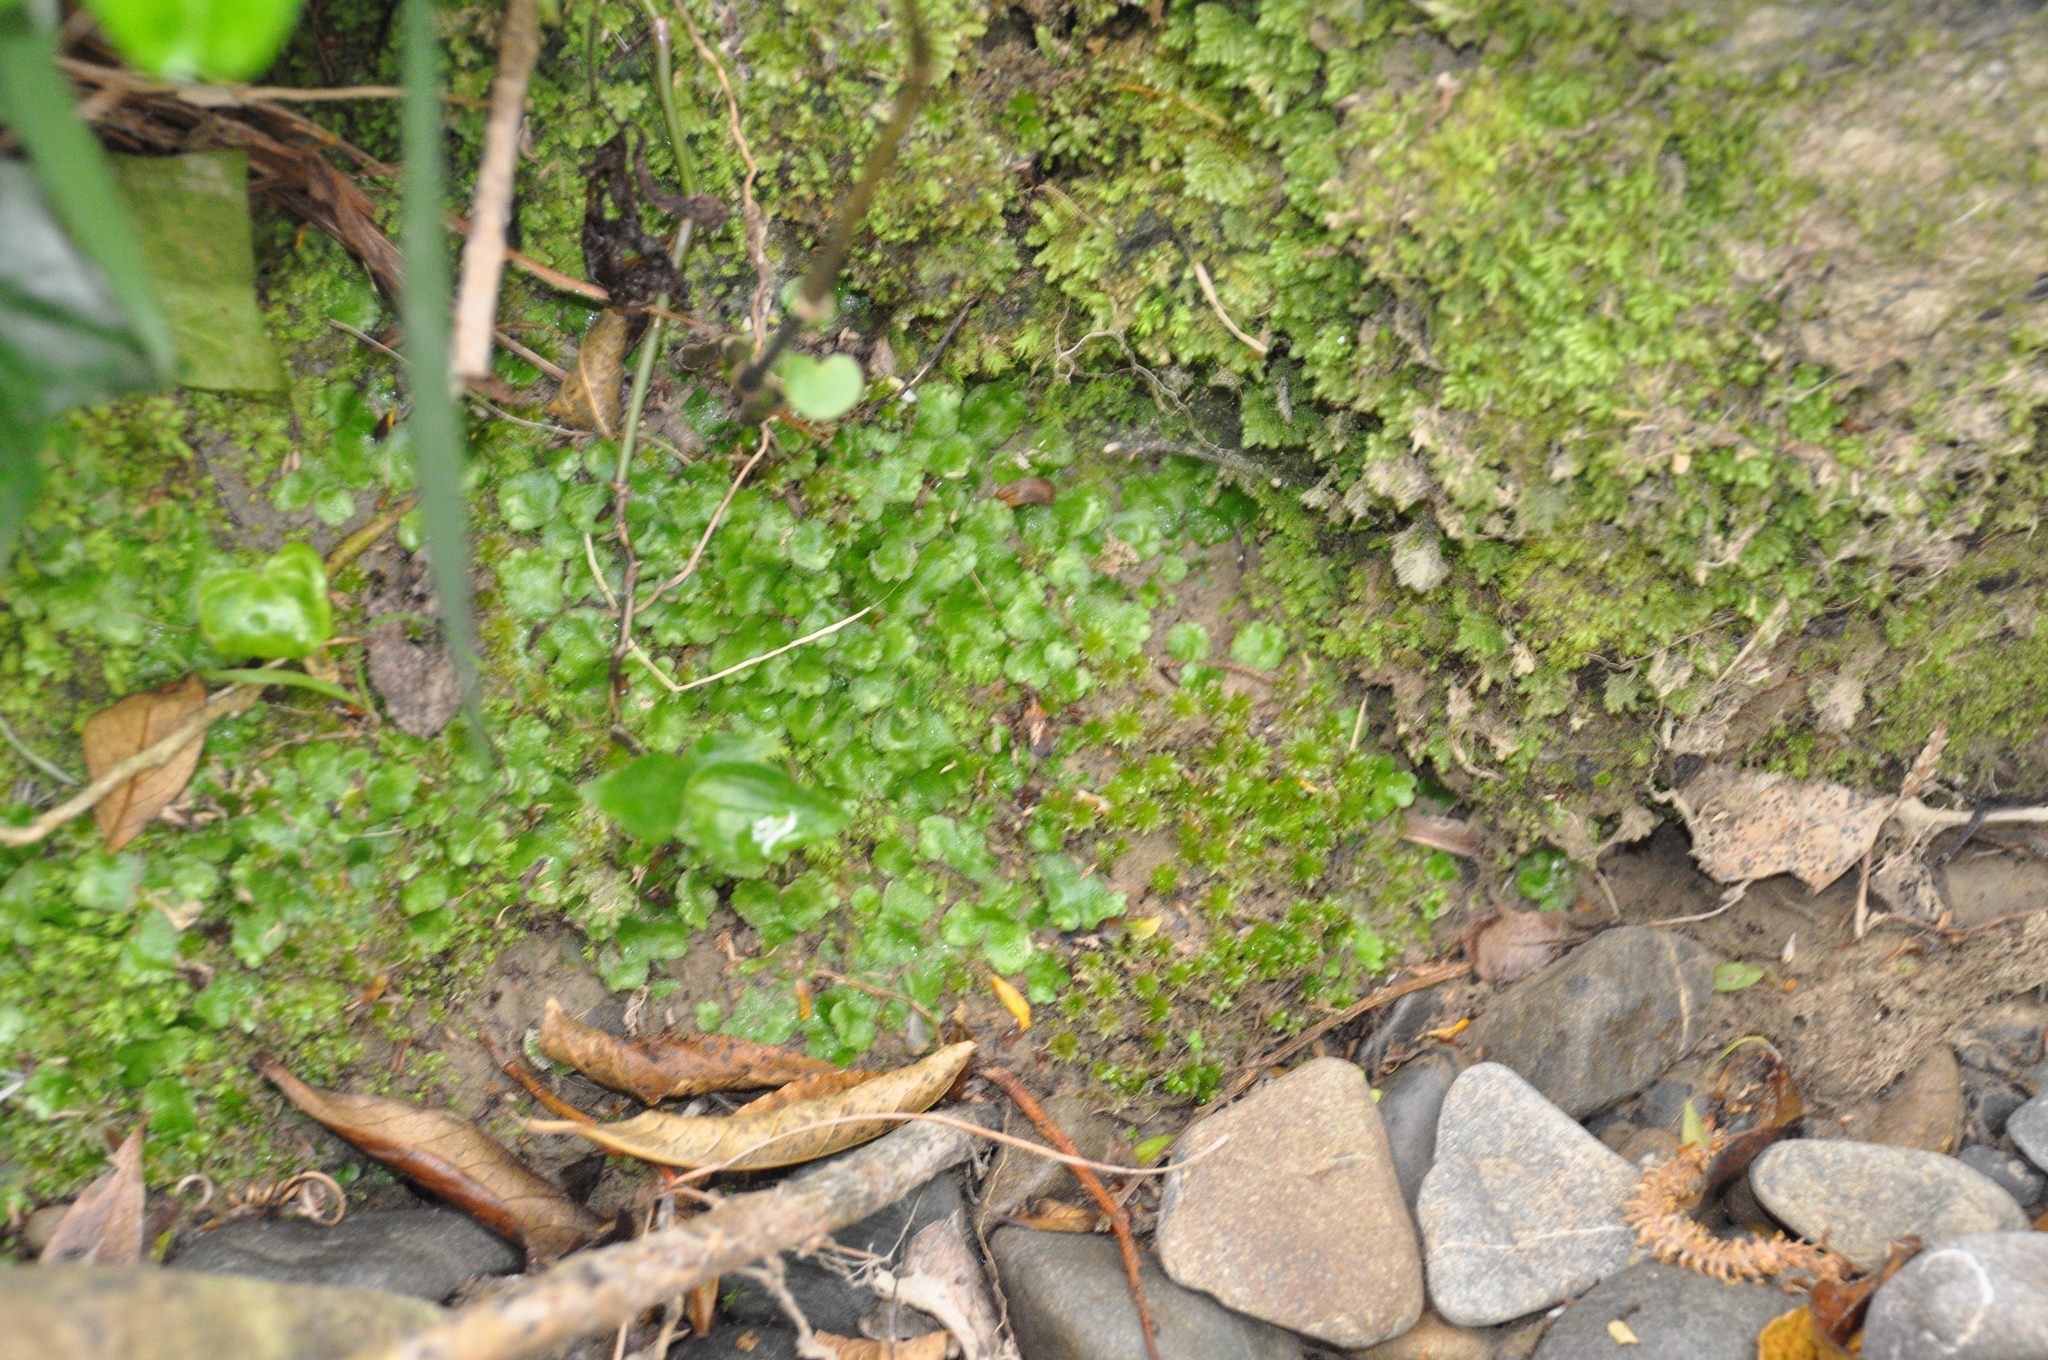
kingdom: Plantae
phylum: Marchantiophyta
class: Marchantiopsida
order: Lunulariales
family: Lunulariaceae
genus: Lunularia
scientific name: Lunularia cruciata
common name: Crescent-cup liverwort
